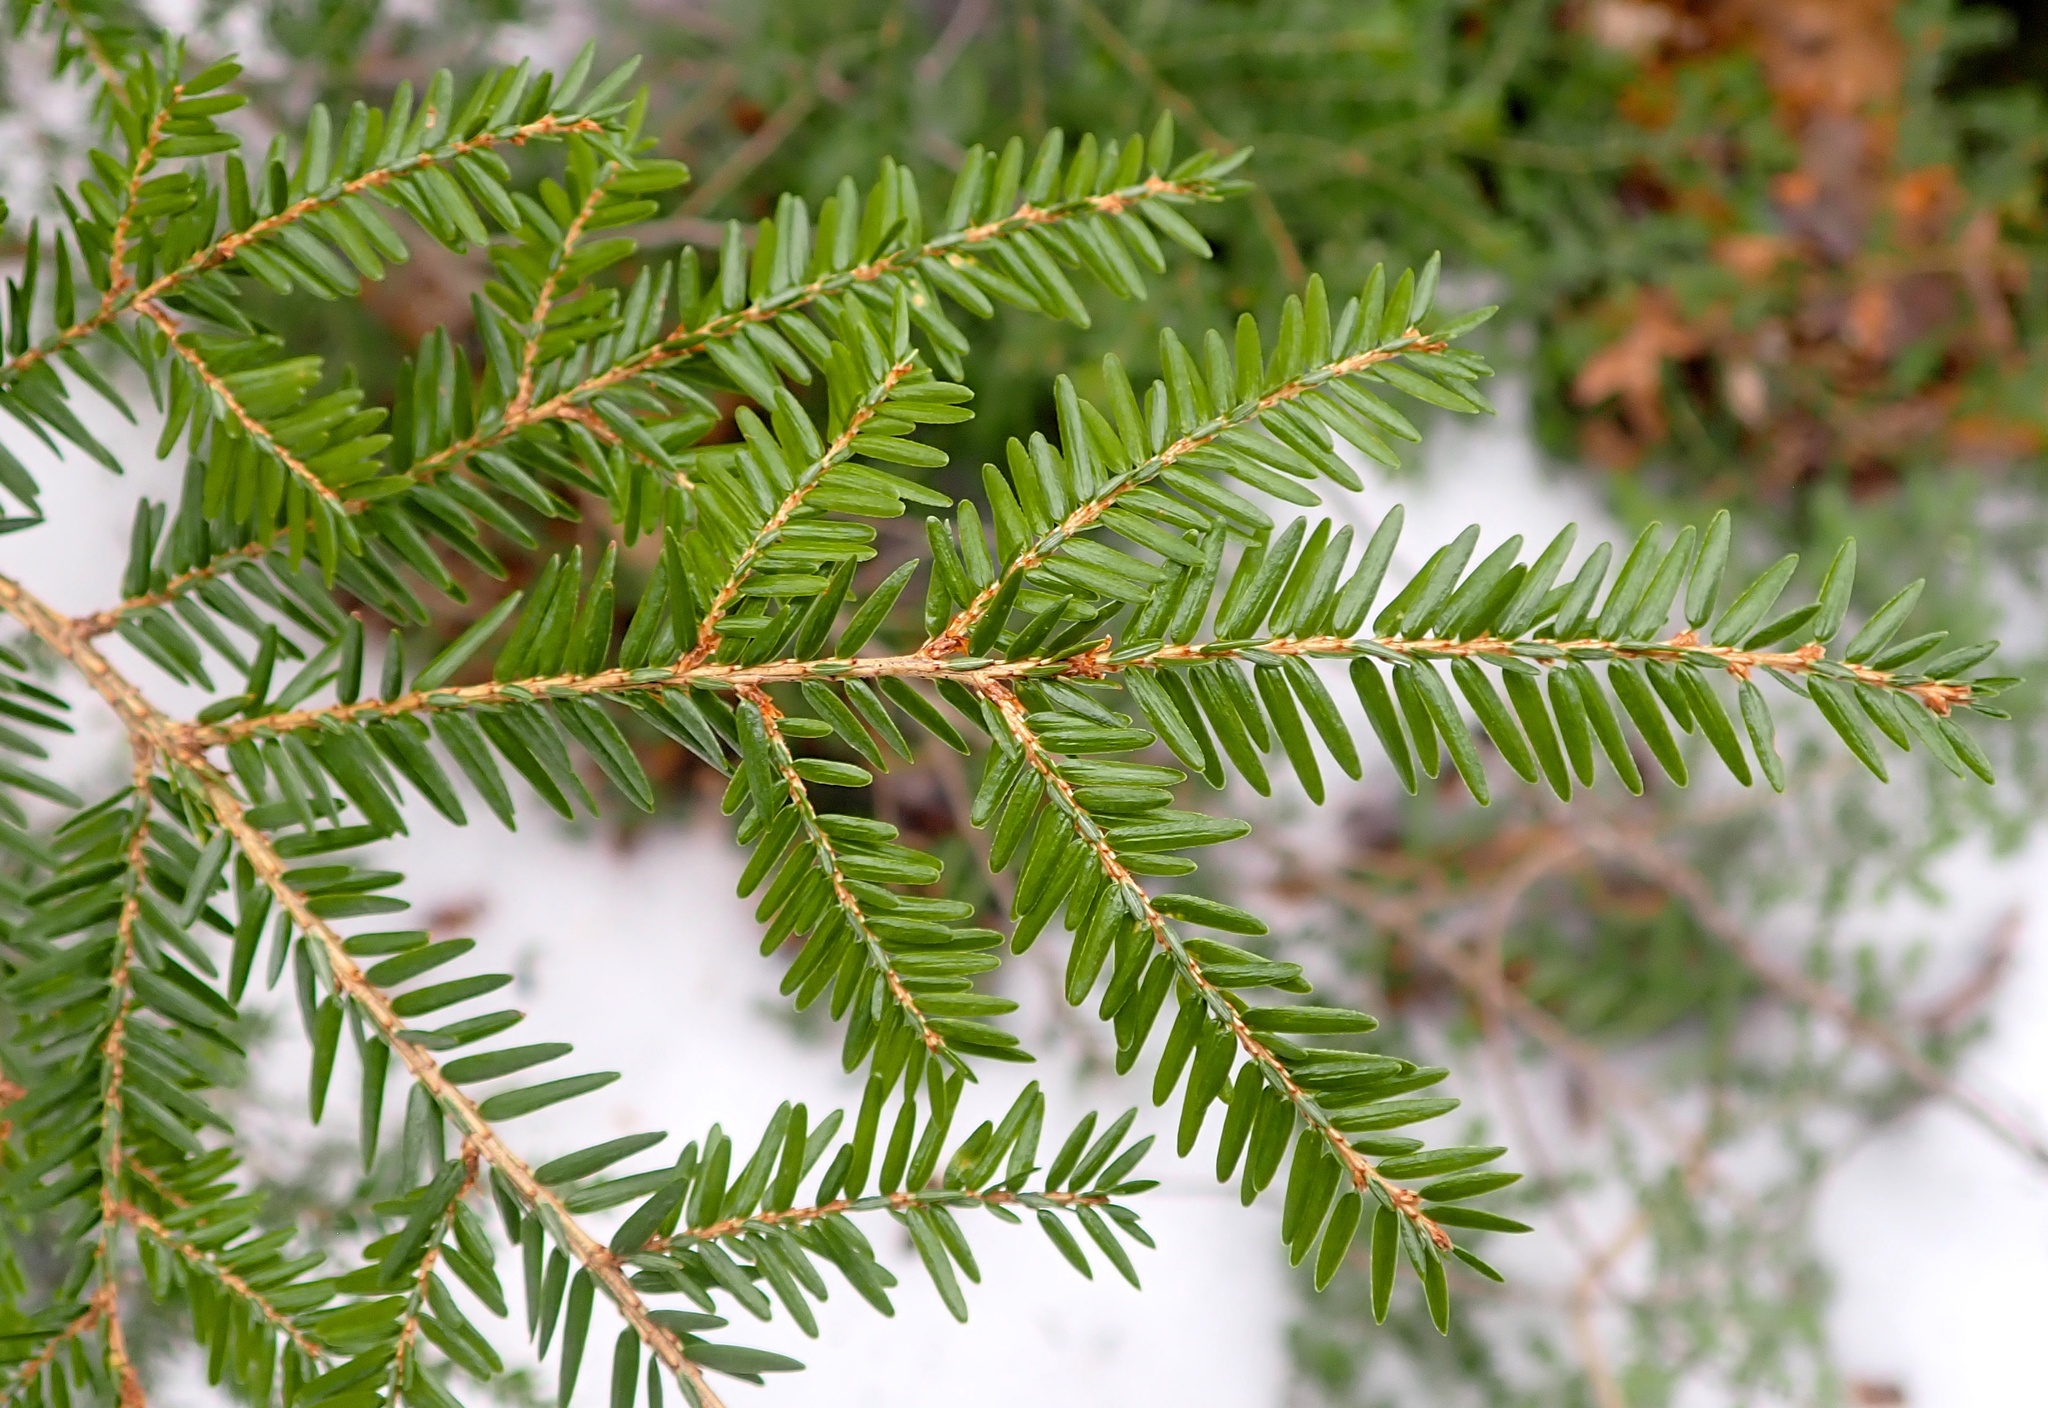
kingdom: Plantae
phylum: Tracheophyta
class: Pinopsida
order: Pinales
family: Pinaceae
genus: Tsuga
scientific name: Tsuga canadensis
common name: Eastern hemlock
